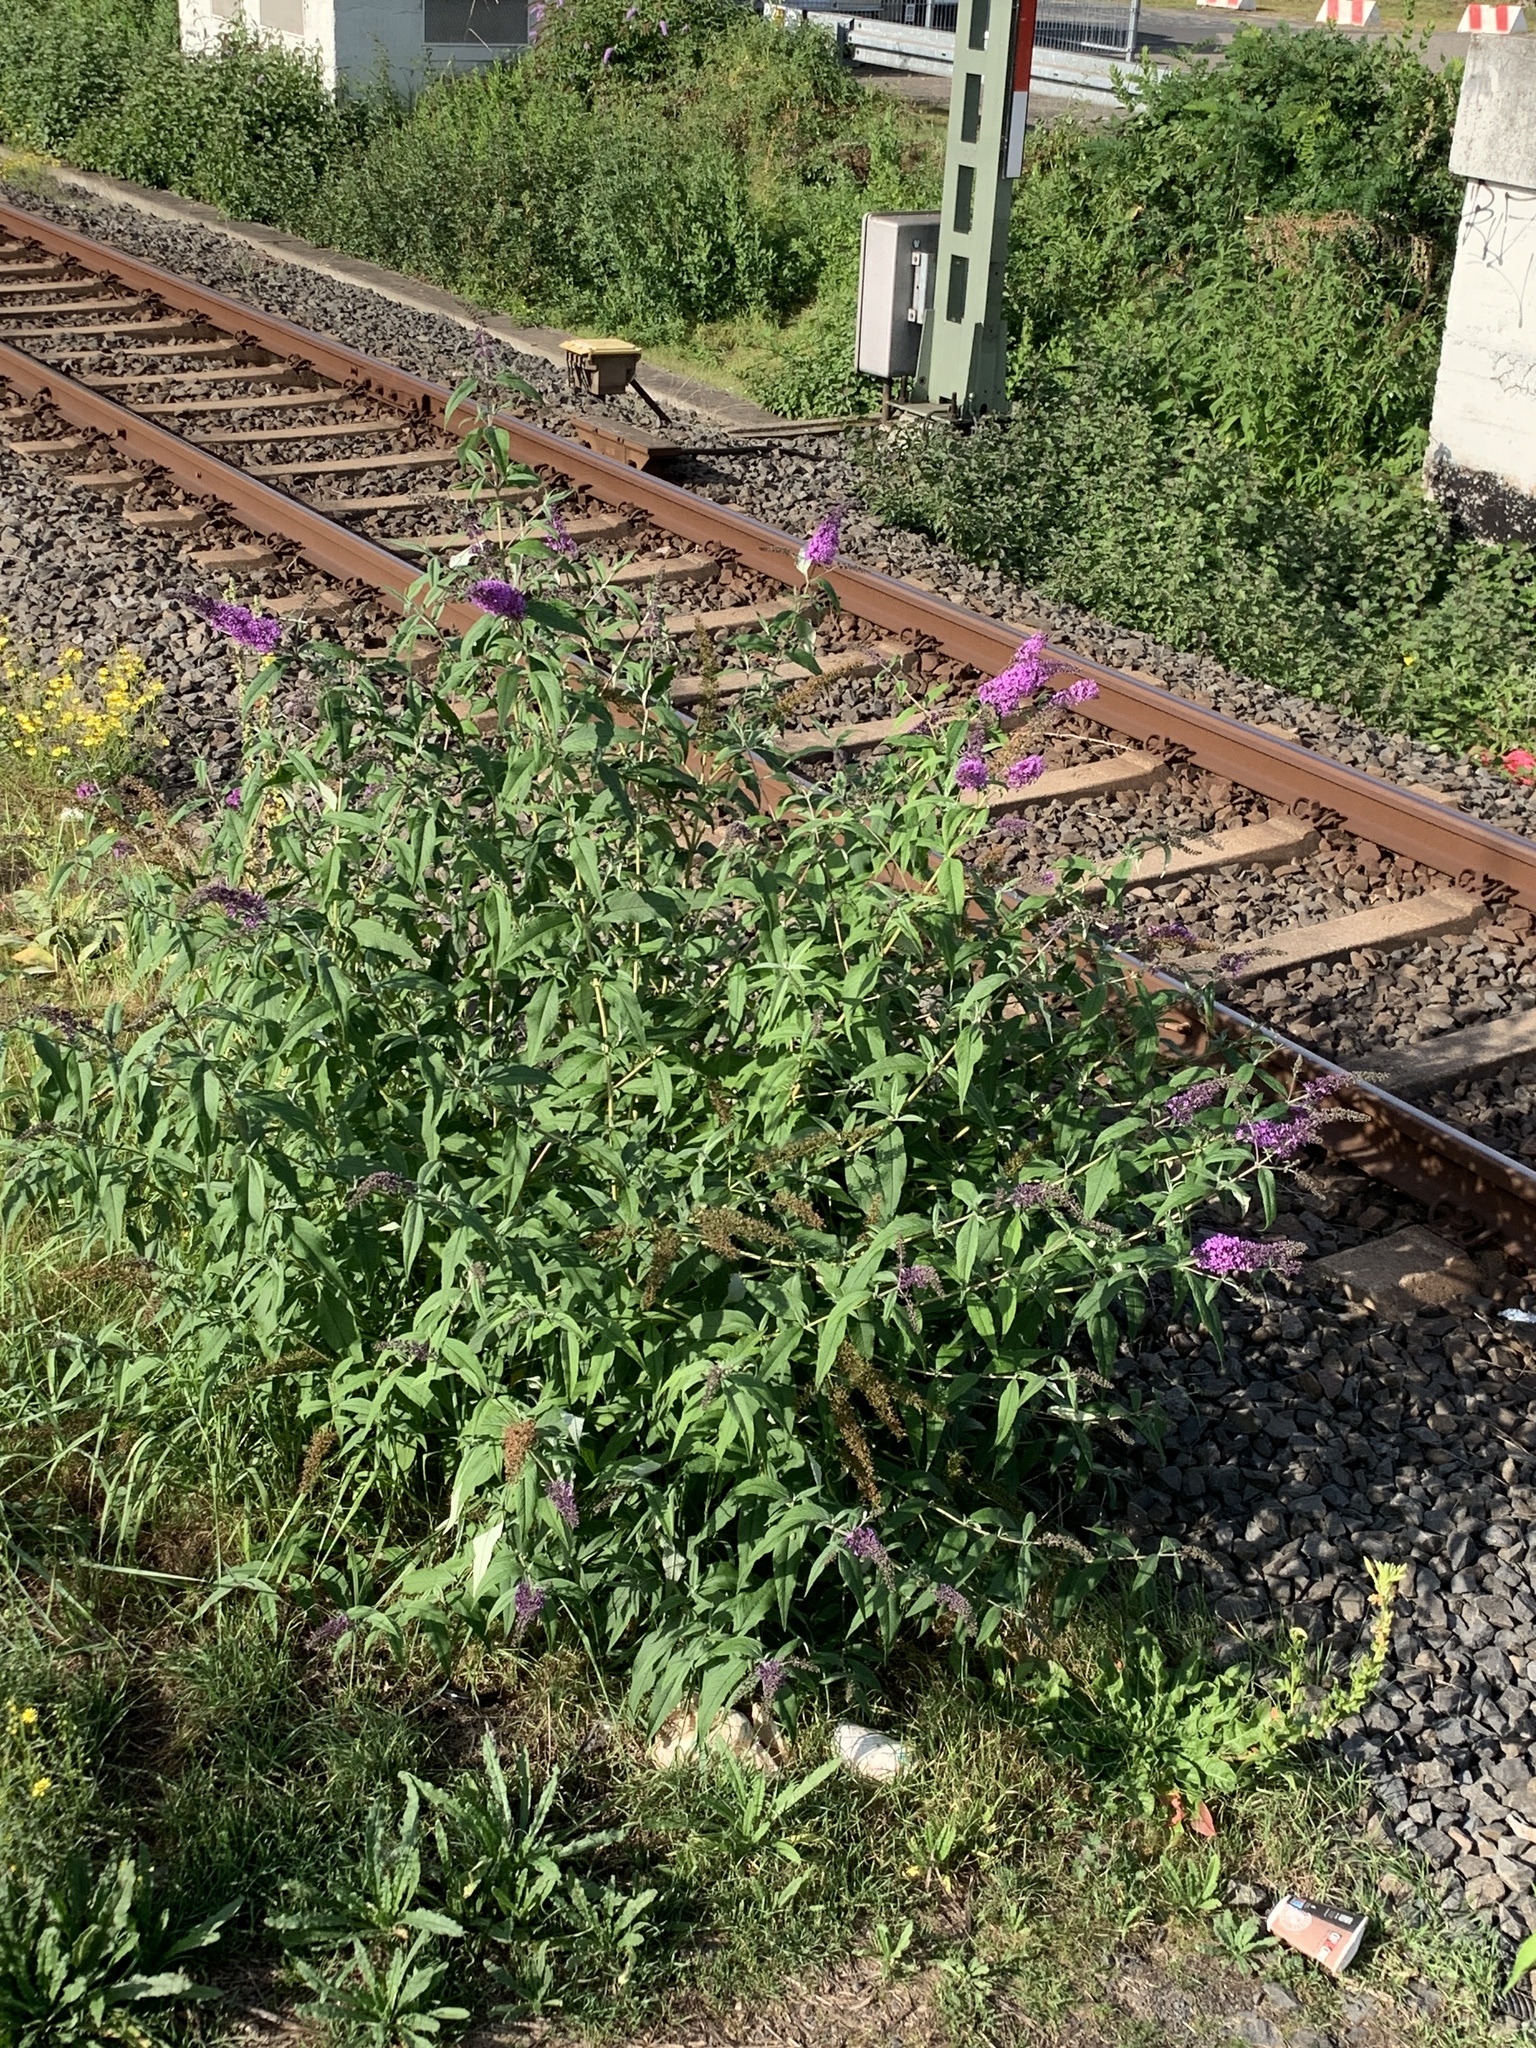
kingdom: Plantae
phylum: Tracheophyta
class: Magnoliopsida
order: Lamiales
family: Scrophulariaceae
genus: Buddleja
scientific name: Buddleja davidii
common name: Butterfly-bush
